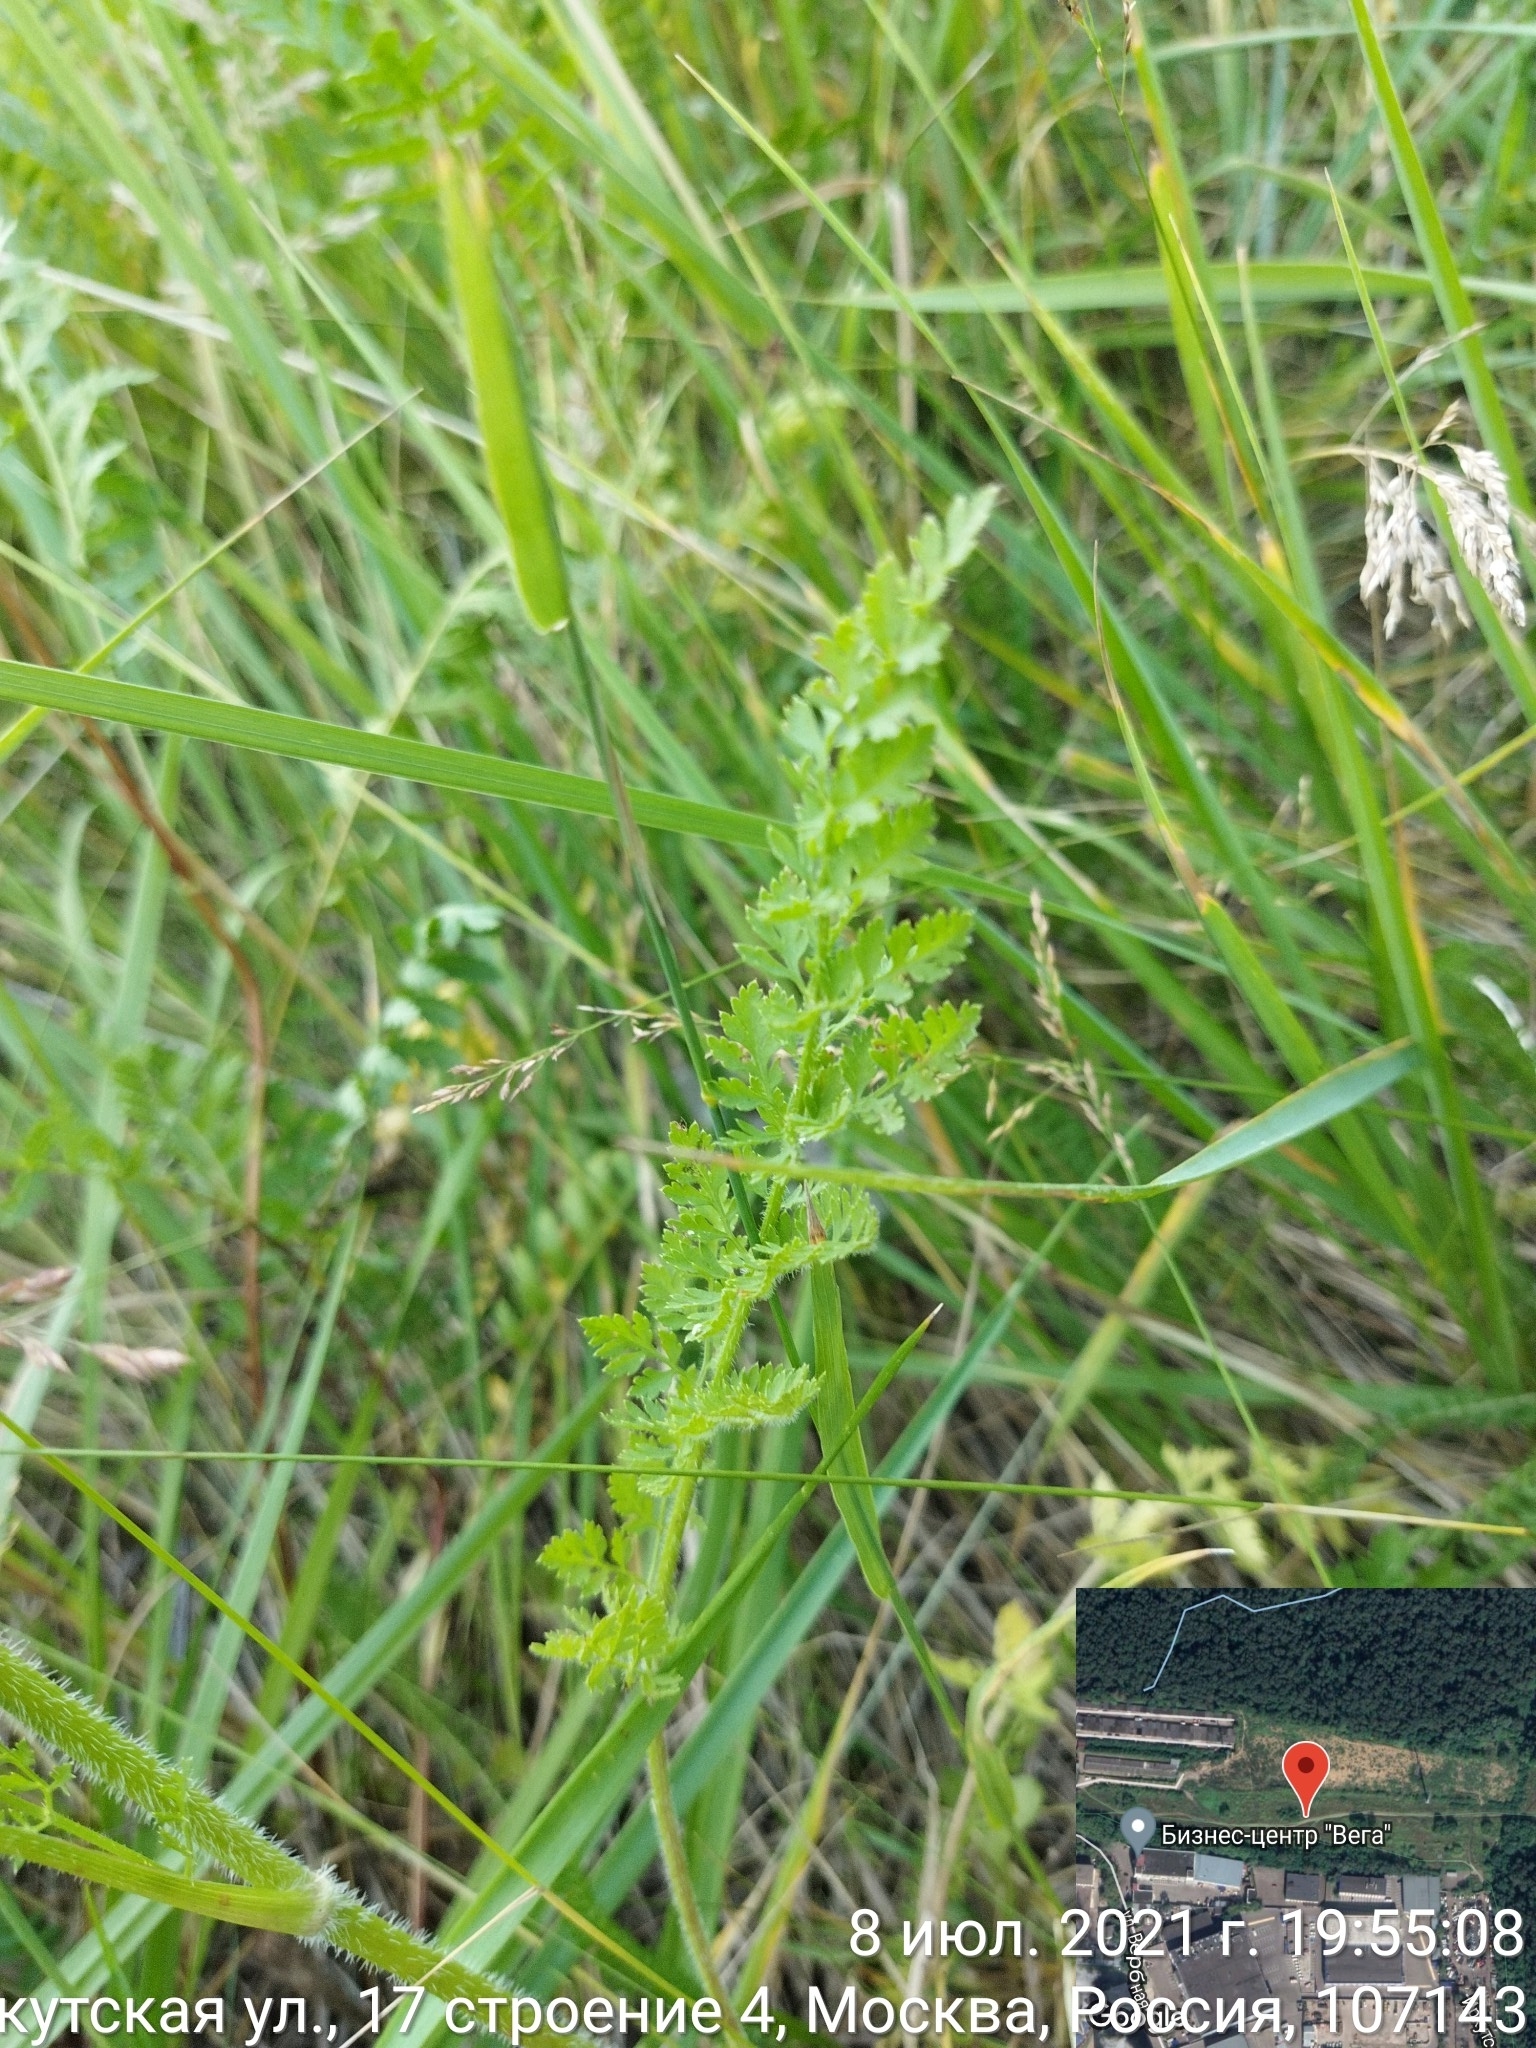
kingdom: Plantae
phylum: Tracheophyta
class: Magnoliopsida
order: Apiales
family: Apiaceae
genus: Daucus
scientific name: Daucus carota
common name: Wild carrot
